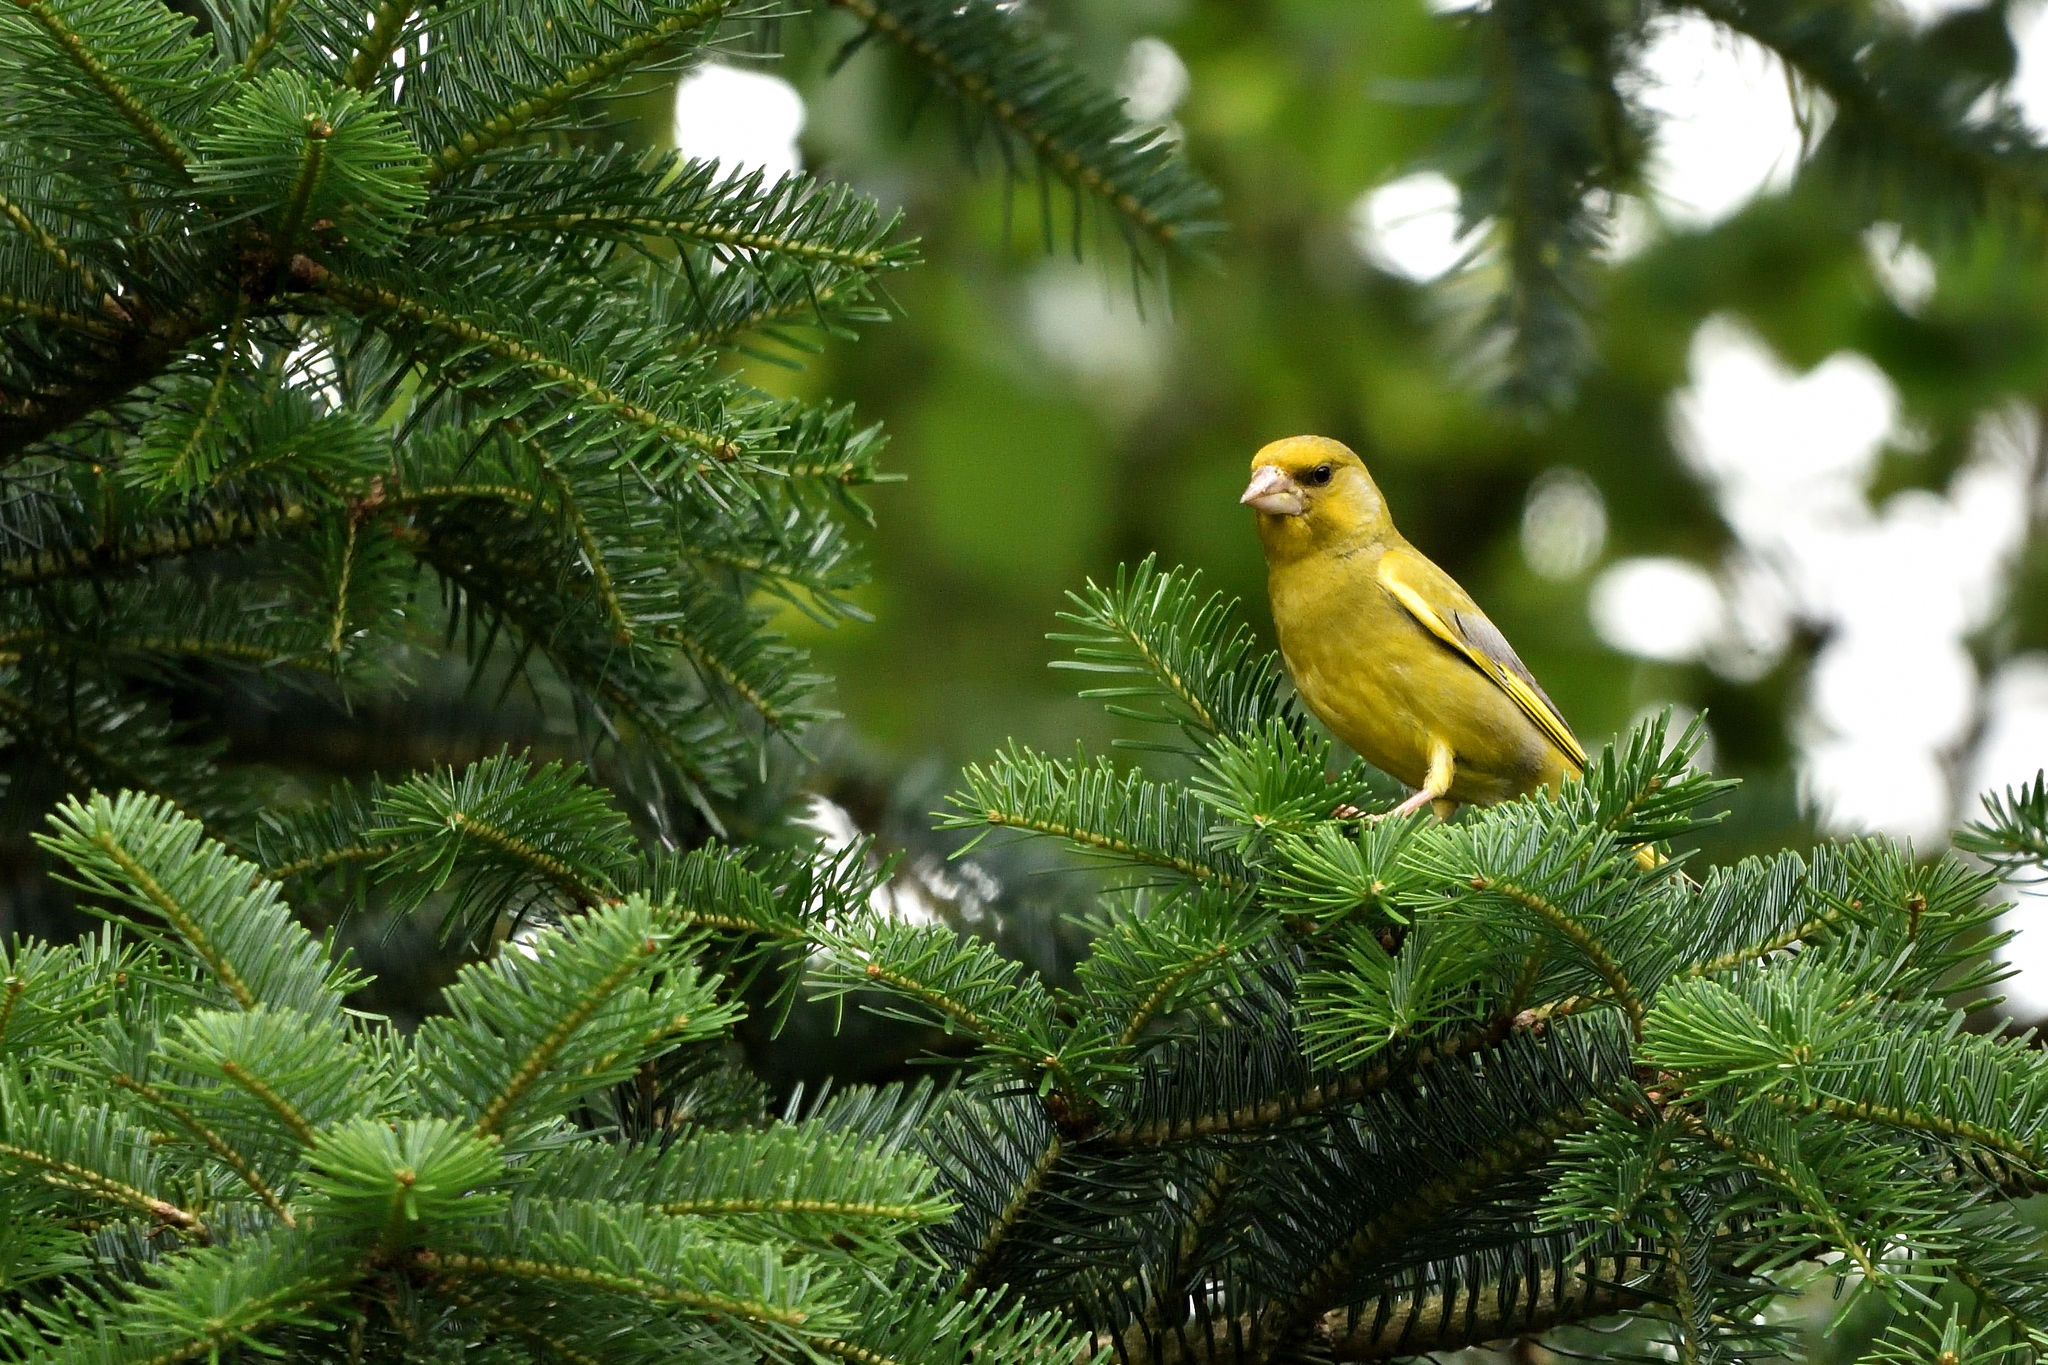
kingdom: Plantae
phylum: Tracheophyta
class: Liliopsida
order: Poales
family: Poaceae
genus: Chloris
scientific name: Chloris chloris
